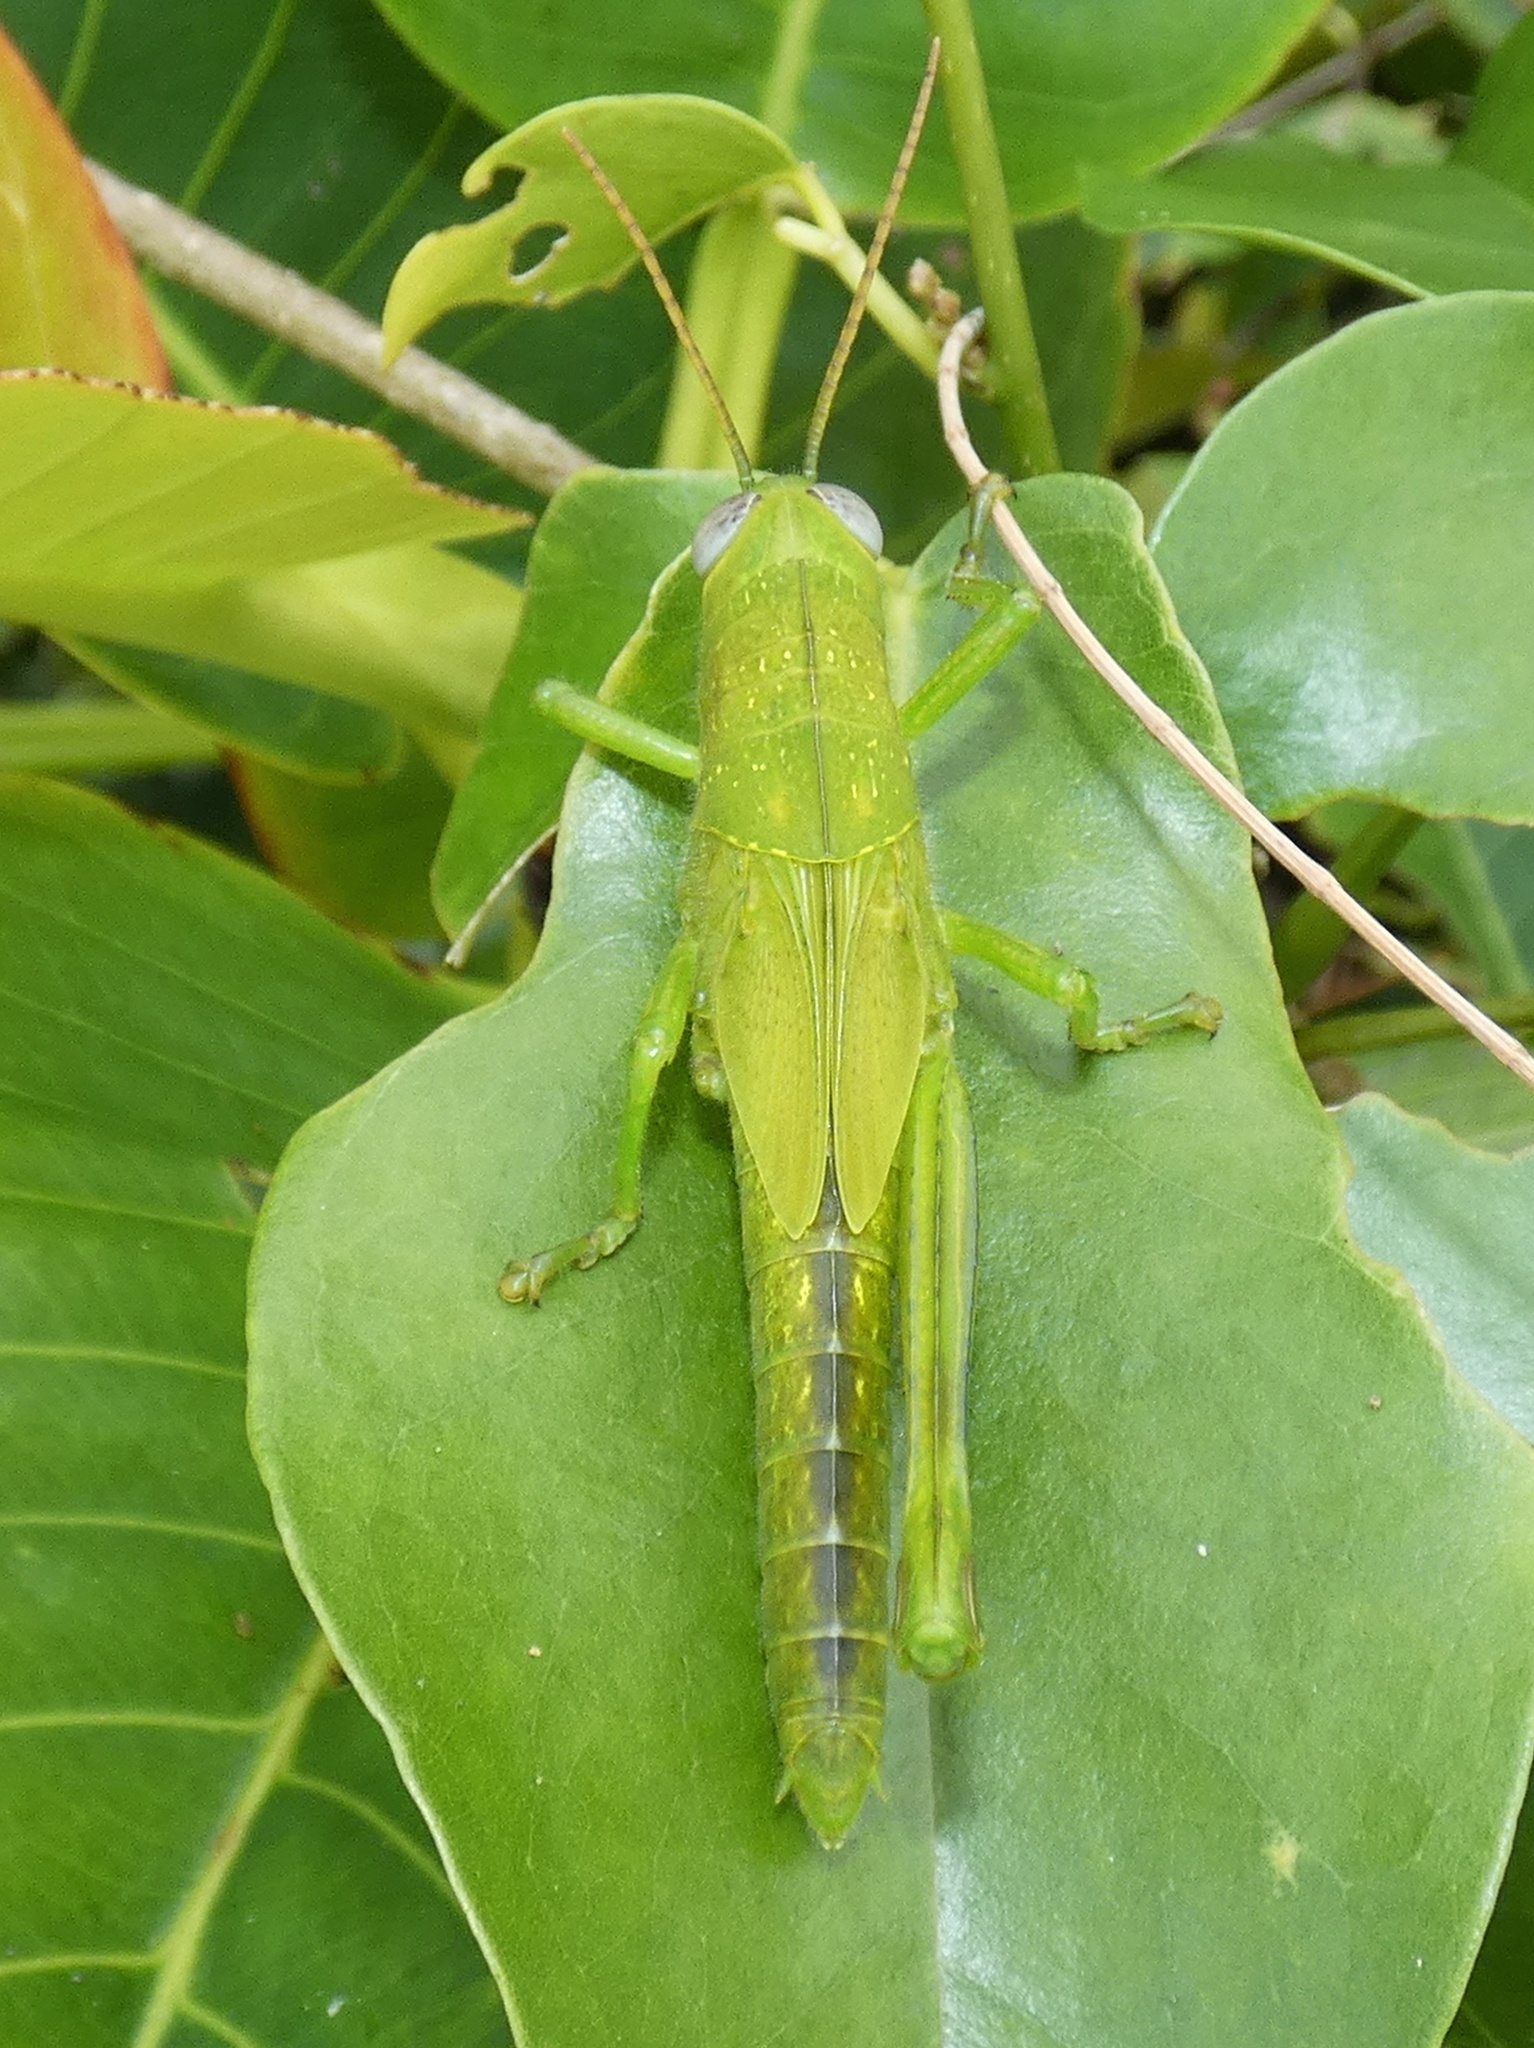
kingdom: Animalia
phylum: Arthropoda
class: Insecta
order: Orthoptera
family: Acrididae
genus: Valanga
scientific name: Valanga irregularis
